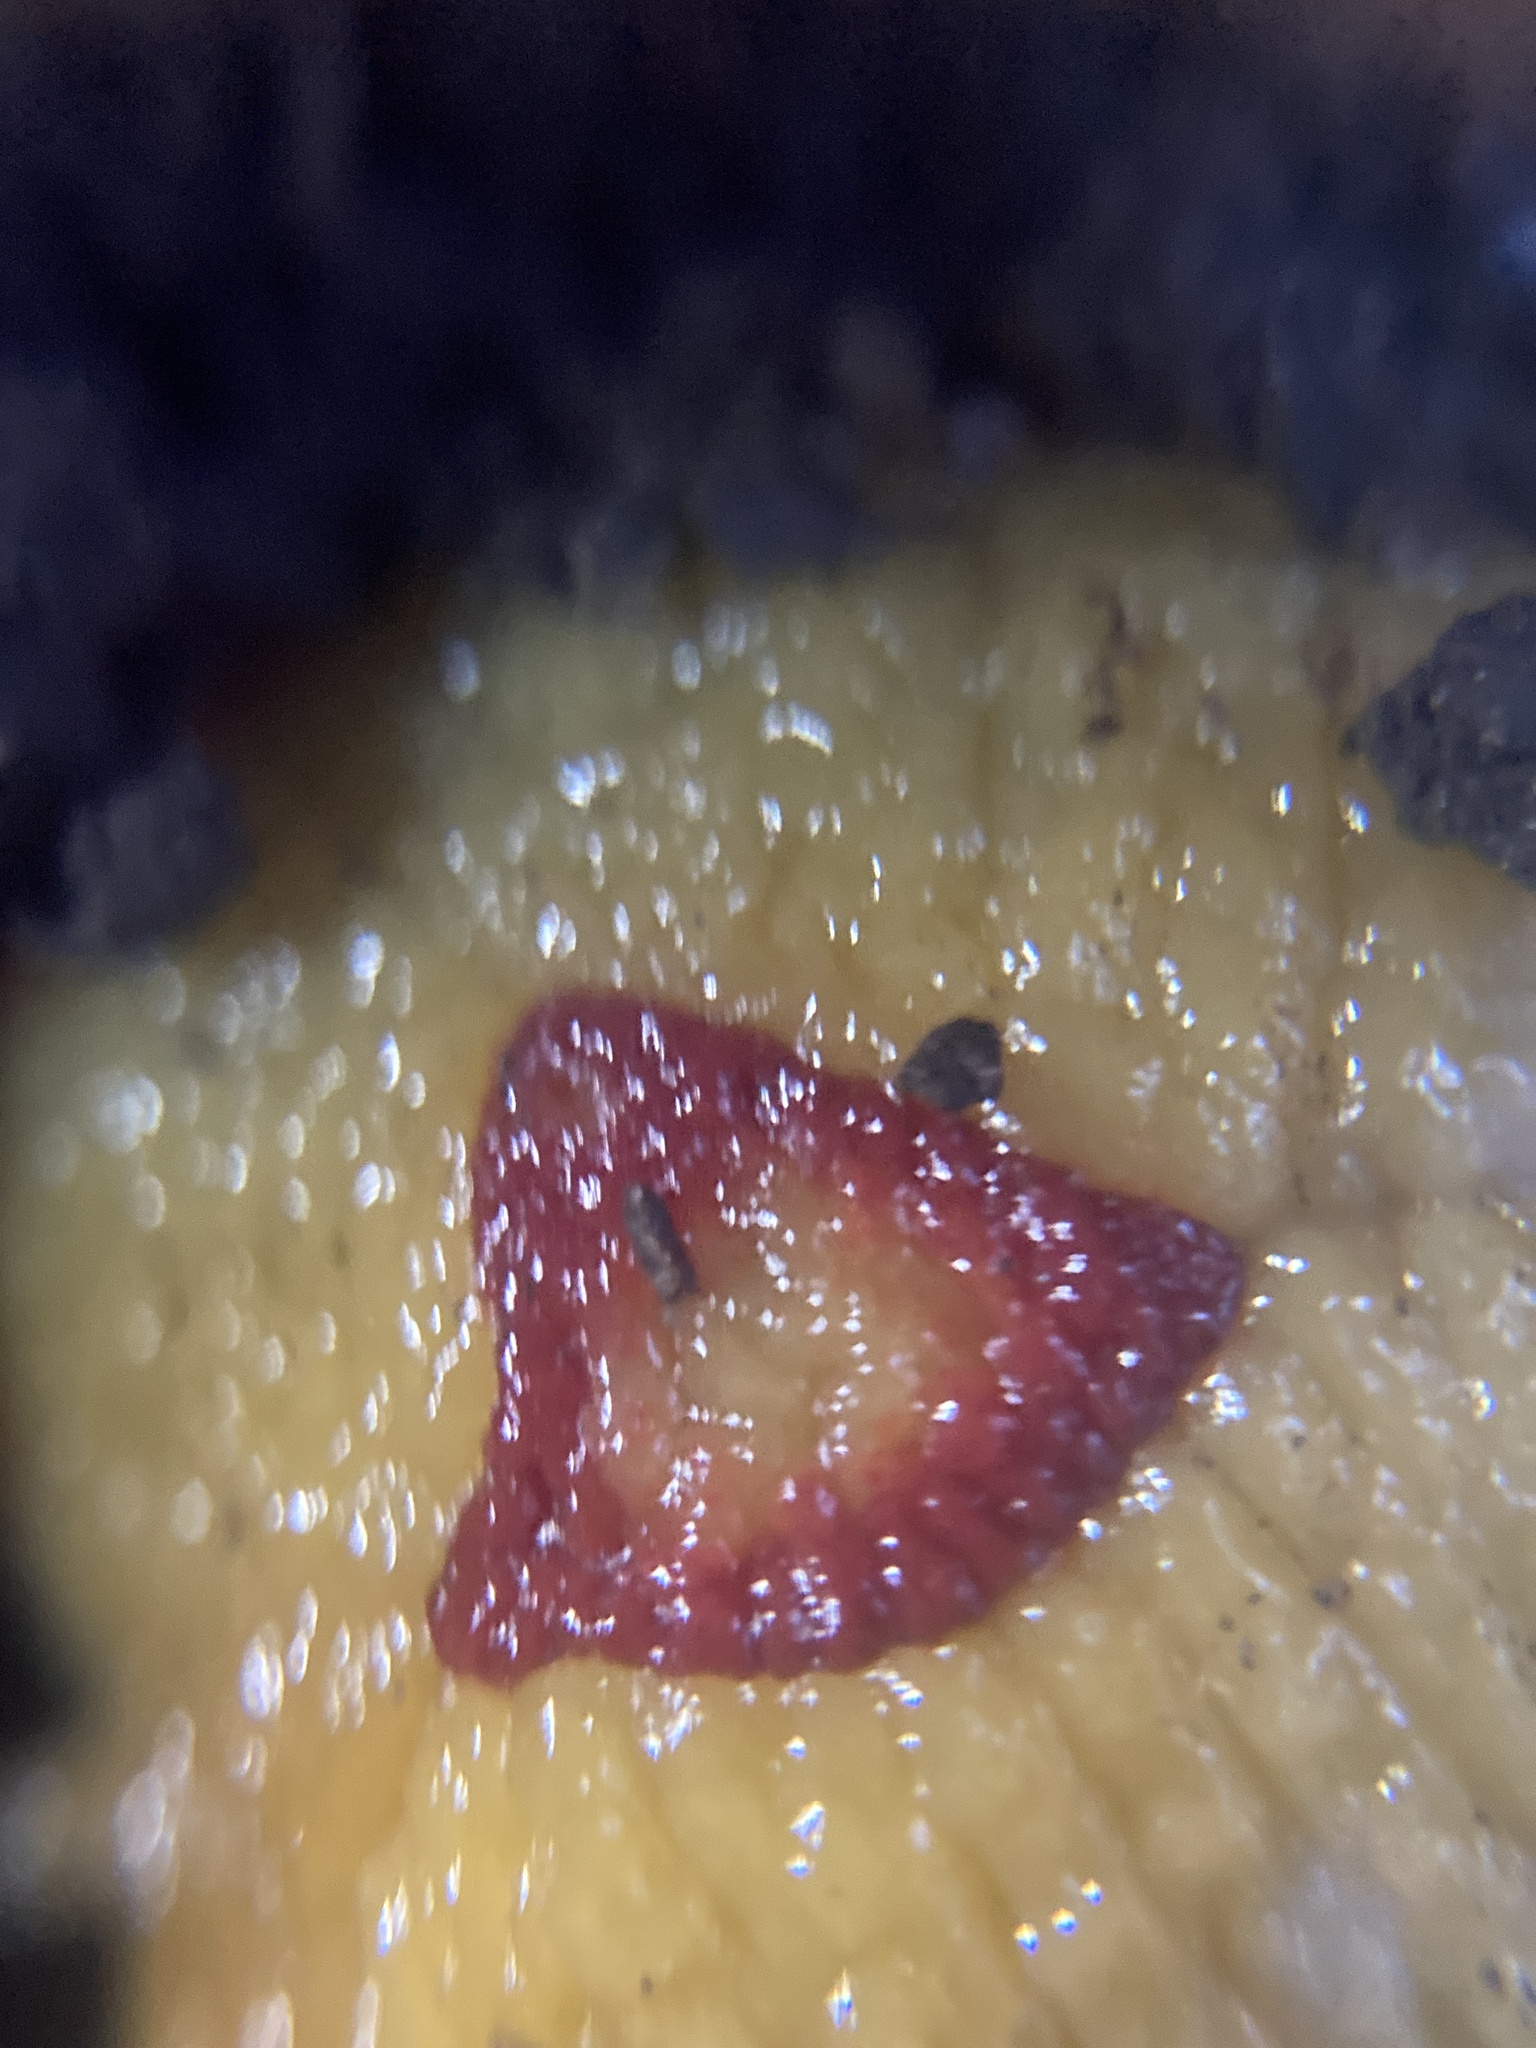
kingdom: Animalia
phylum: Mollusca
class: Gastropoda
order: Stylommatophora
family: Athoracophoridae
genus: Triboniophorus
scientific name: Triboniophorus graeffei
